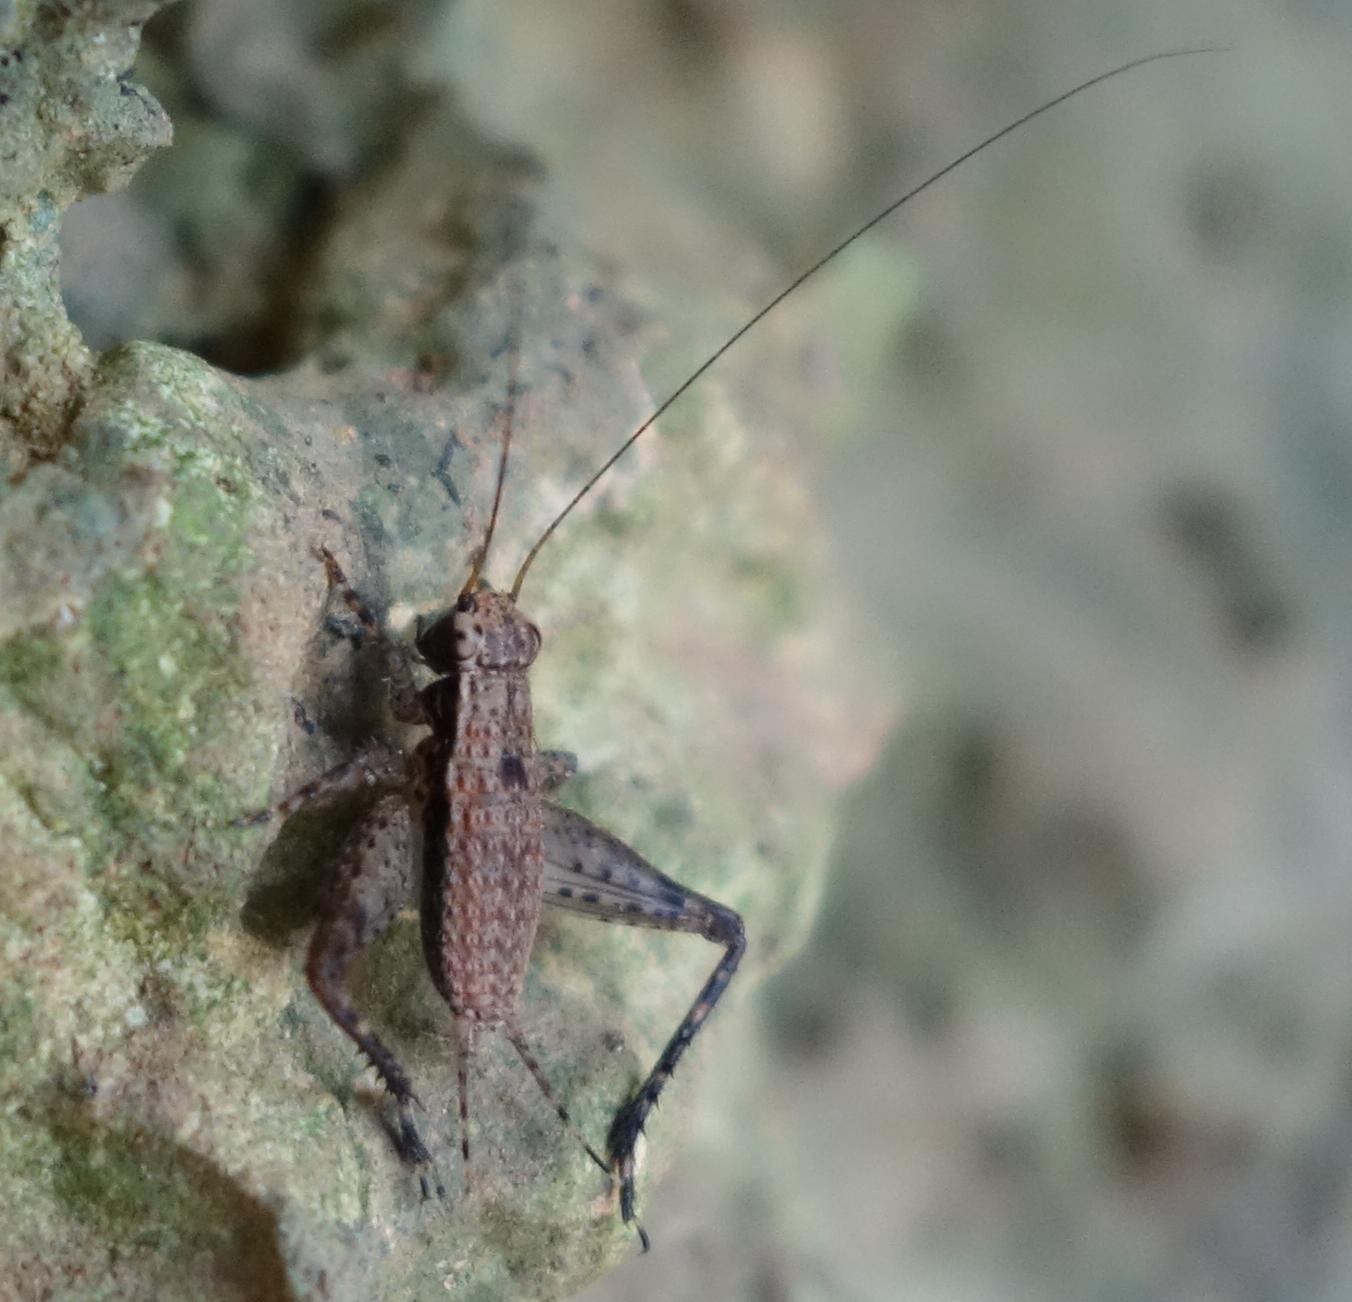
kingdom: Animalia
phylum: Arthropoda
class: Insecta
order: Orthoptera
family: Gryllidae
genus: Cardiodactylus
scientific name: Cardiodactylus guttulus
